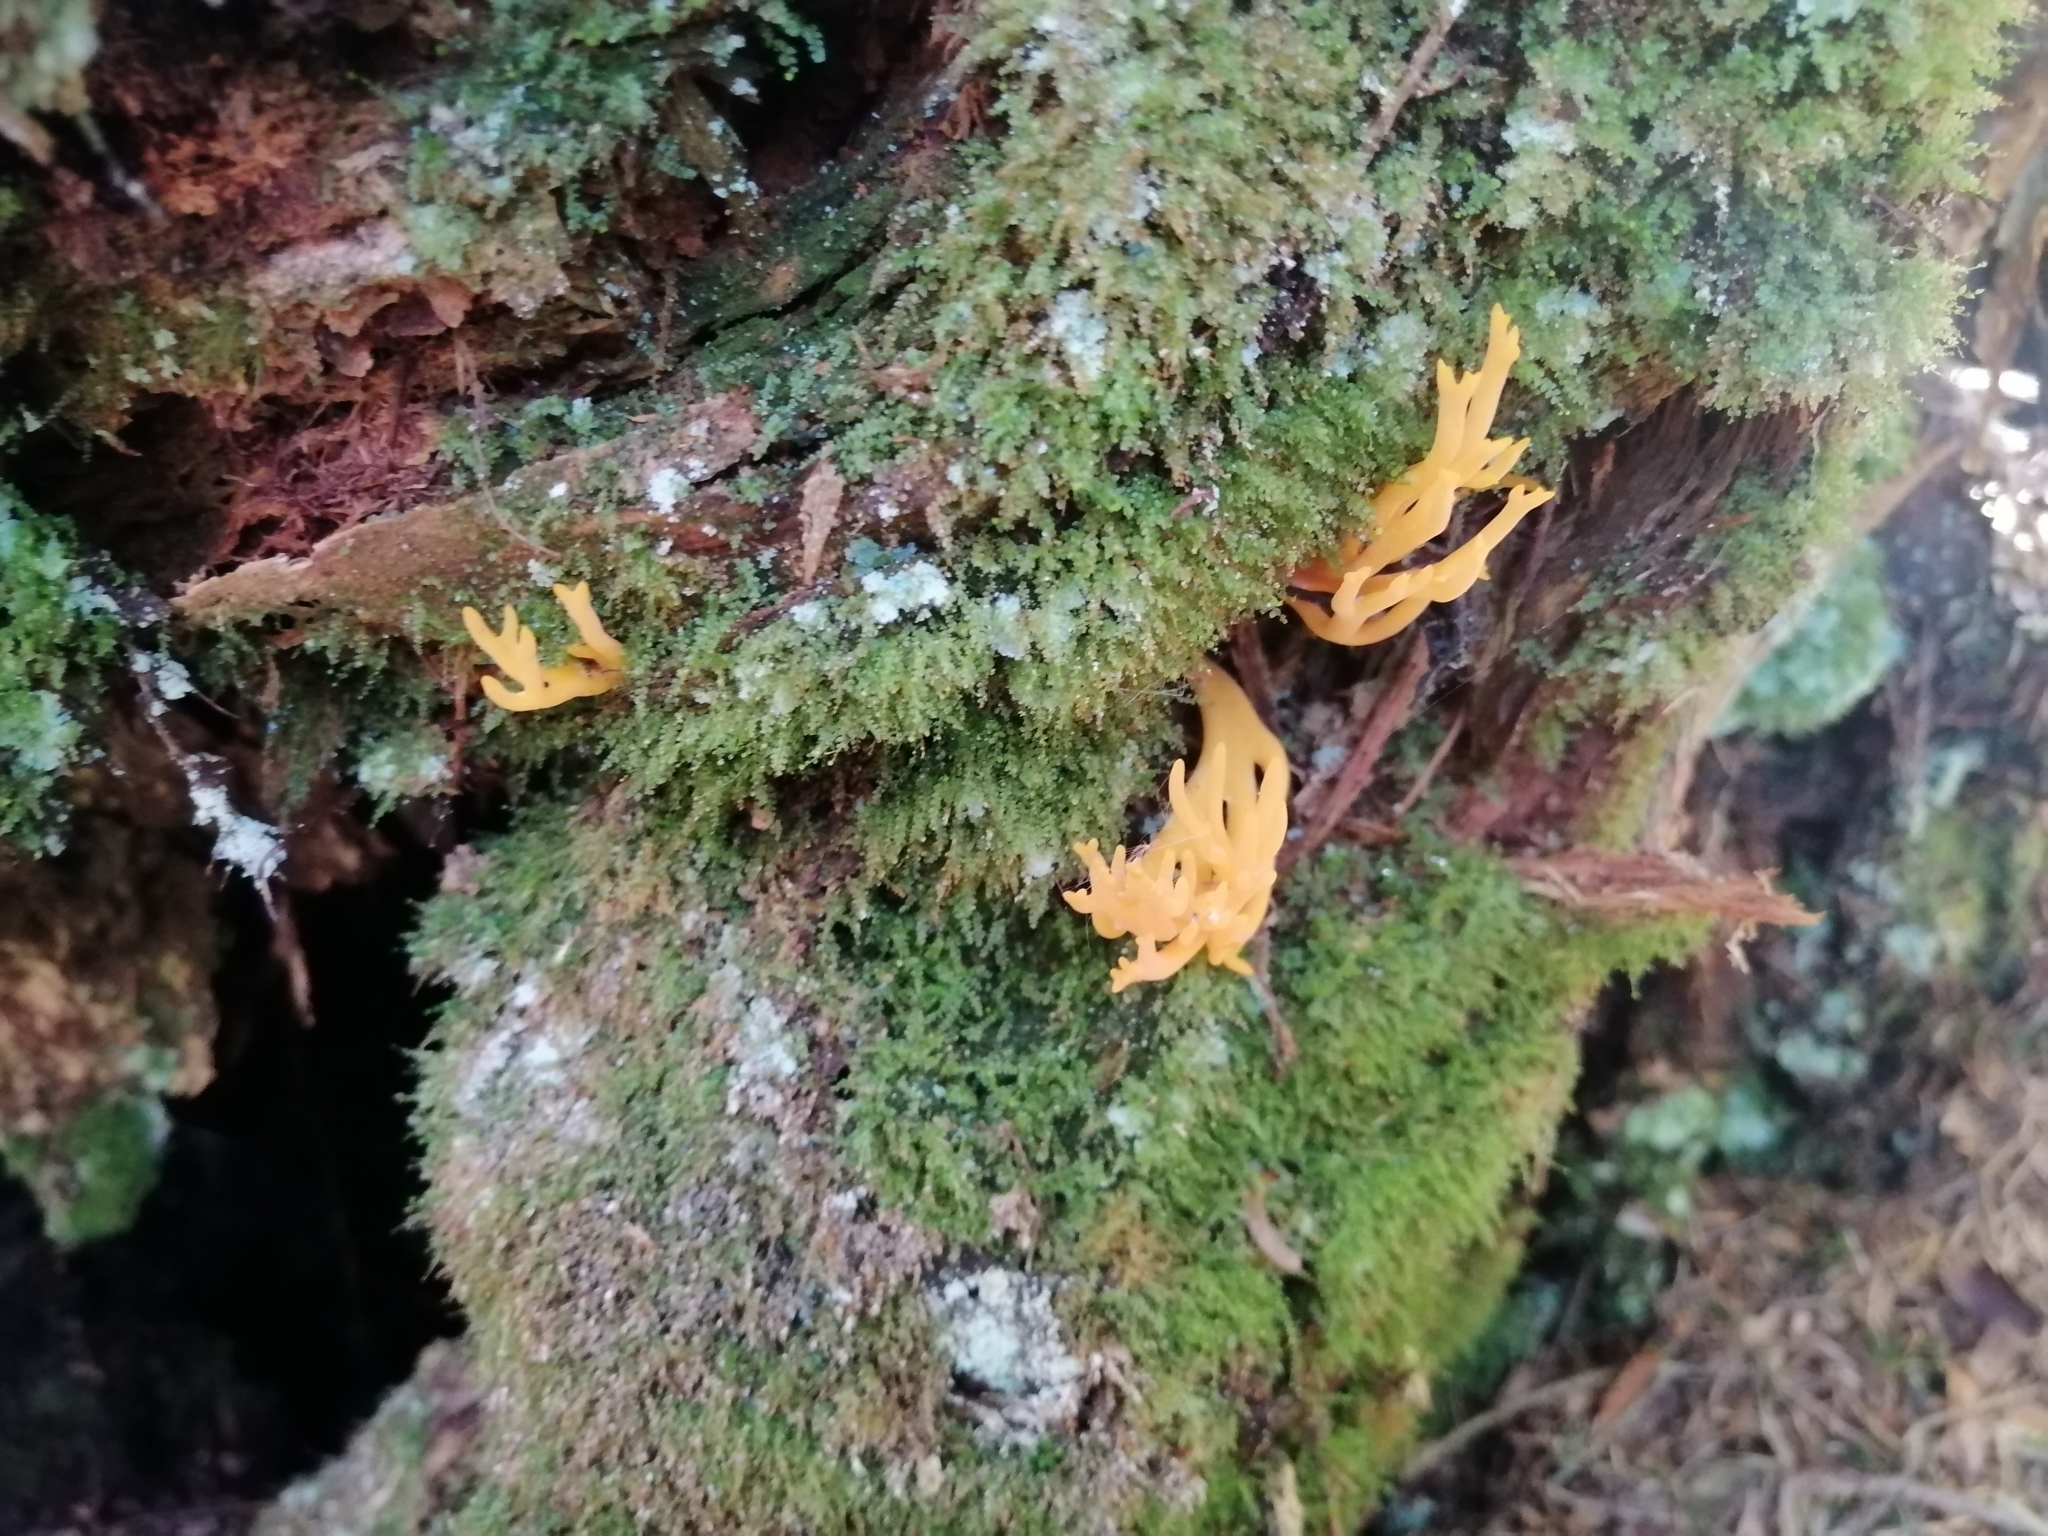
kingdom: Fungi
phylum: Basidiomycota
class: Dacrymycetes
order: Dacrymycetales
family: Dacrymycetaceae
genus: Calocera
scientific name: Calocera viscosa
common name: Yellow stagshorn
